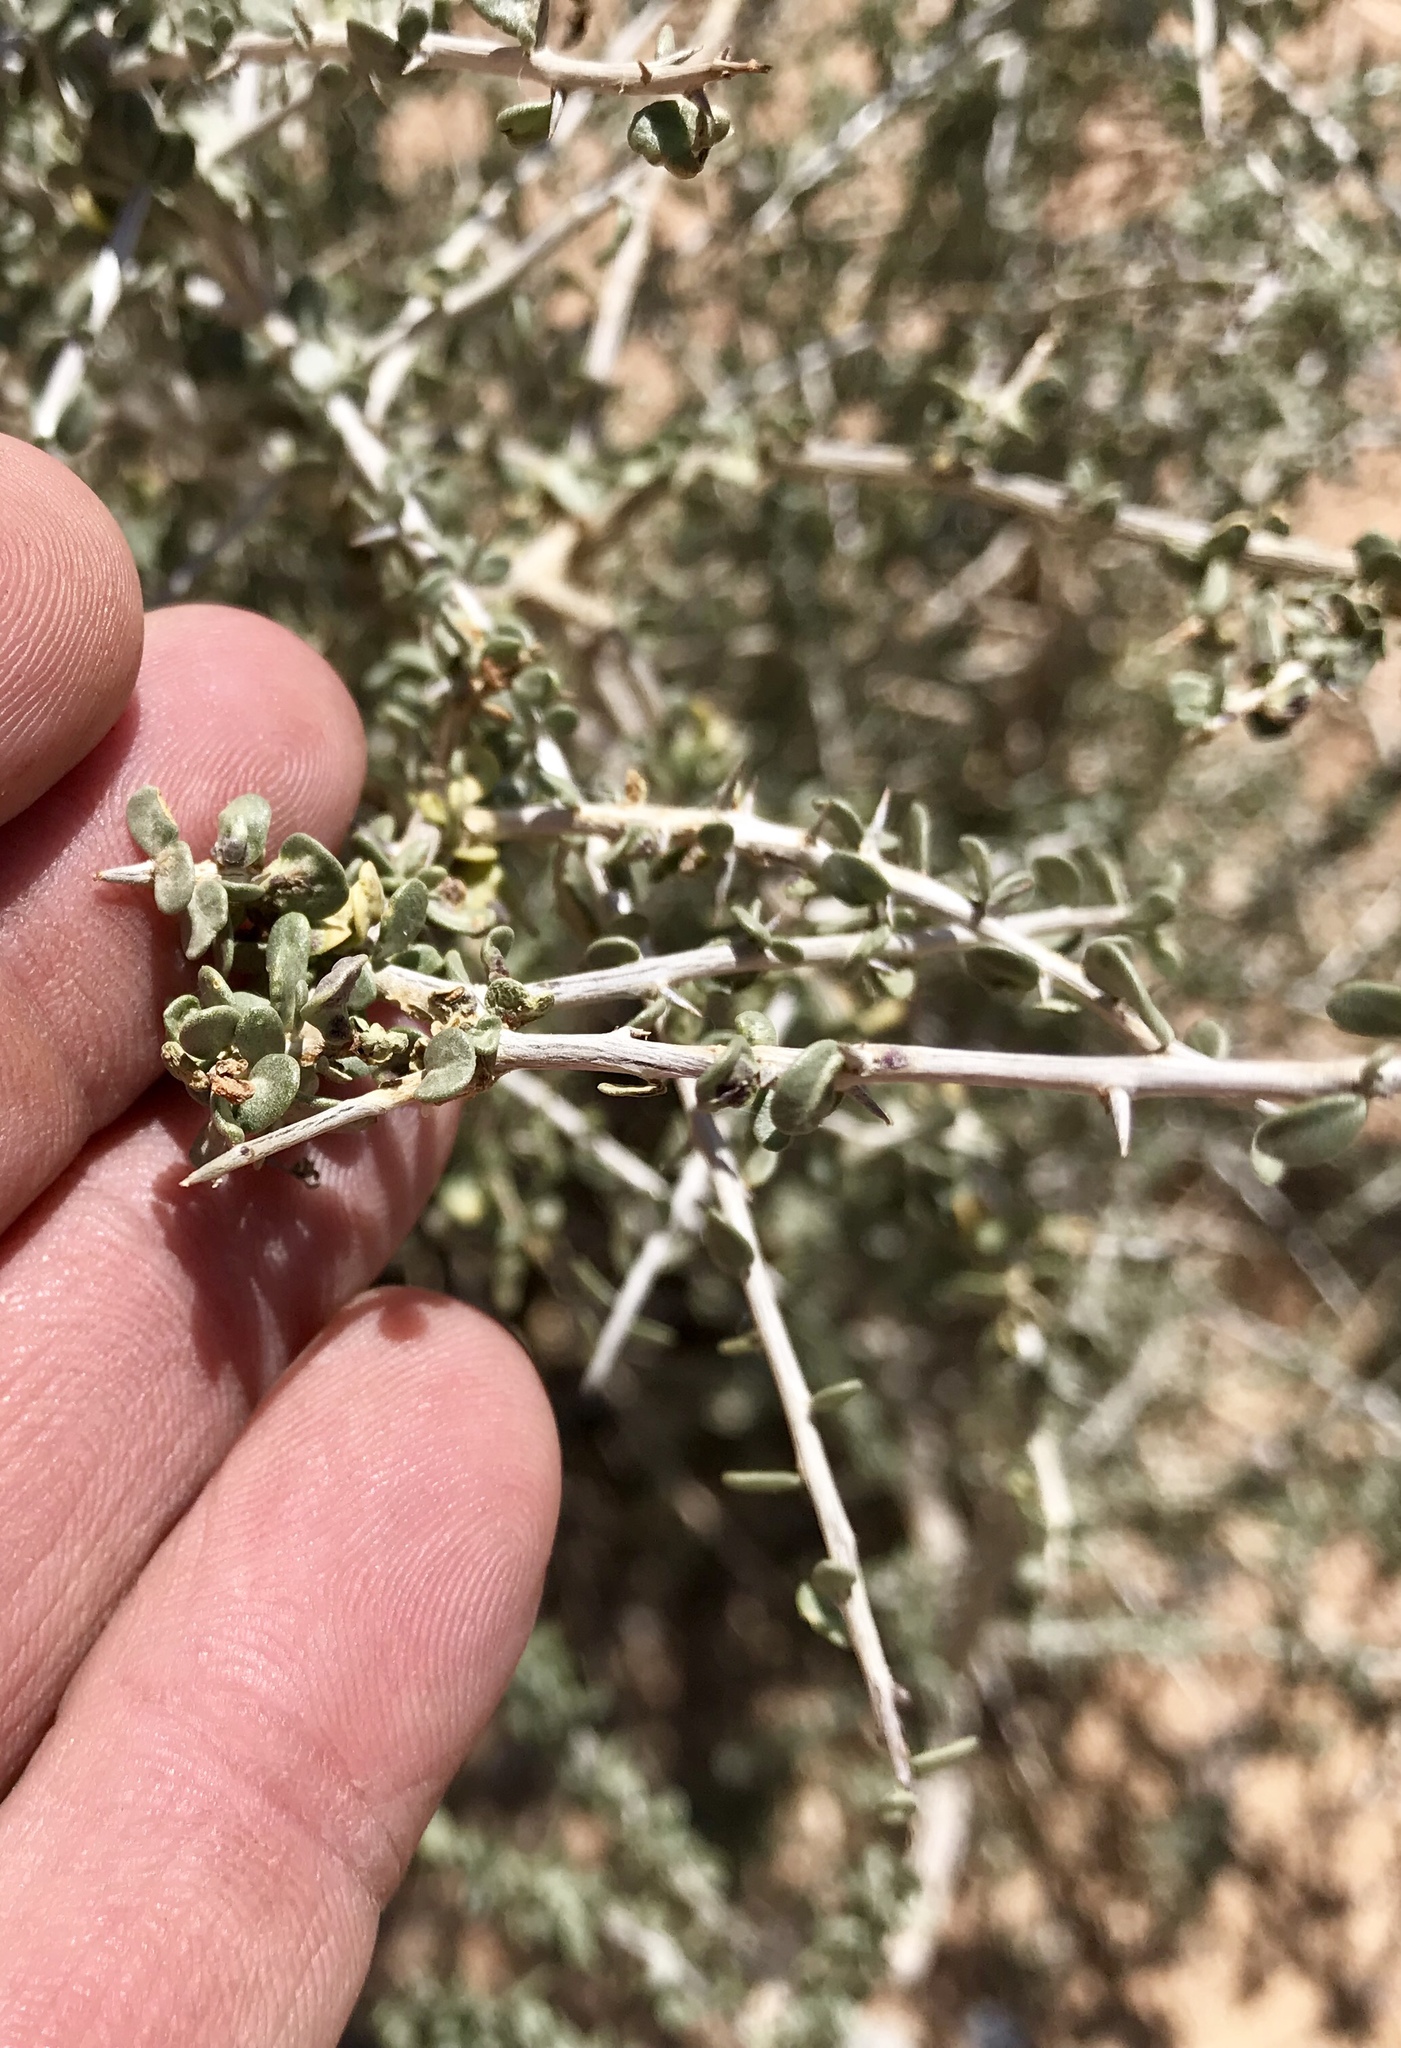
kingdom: Plantae
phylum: Tracheophyta
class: Magnoliopsida
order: Rosales
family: Rhamnaceae
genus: Condalia
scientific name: Condalia warnockii
